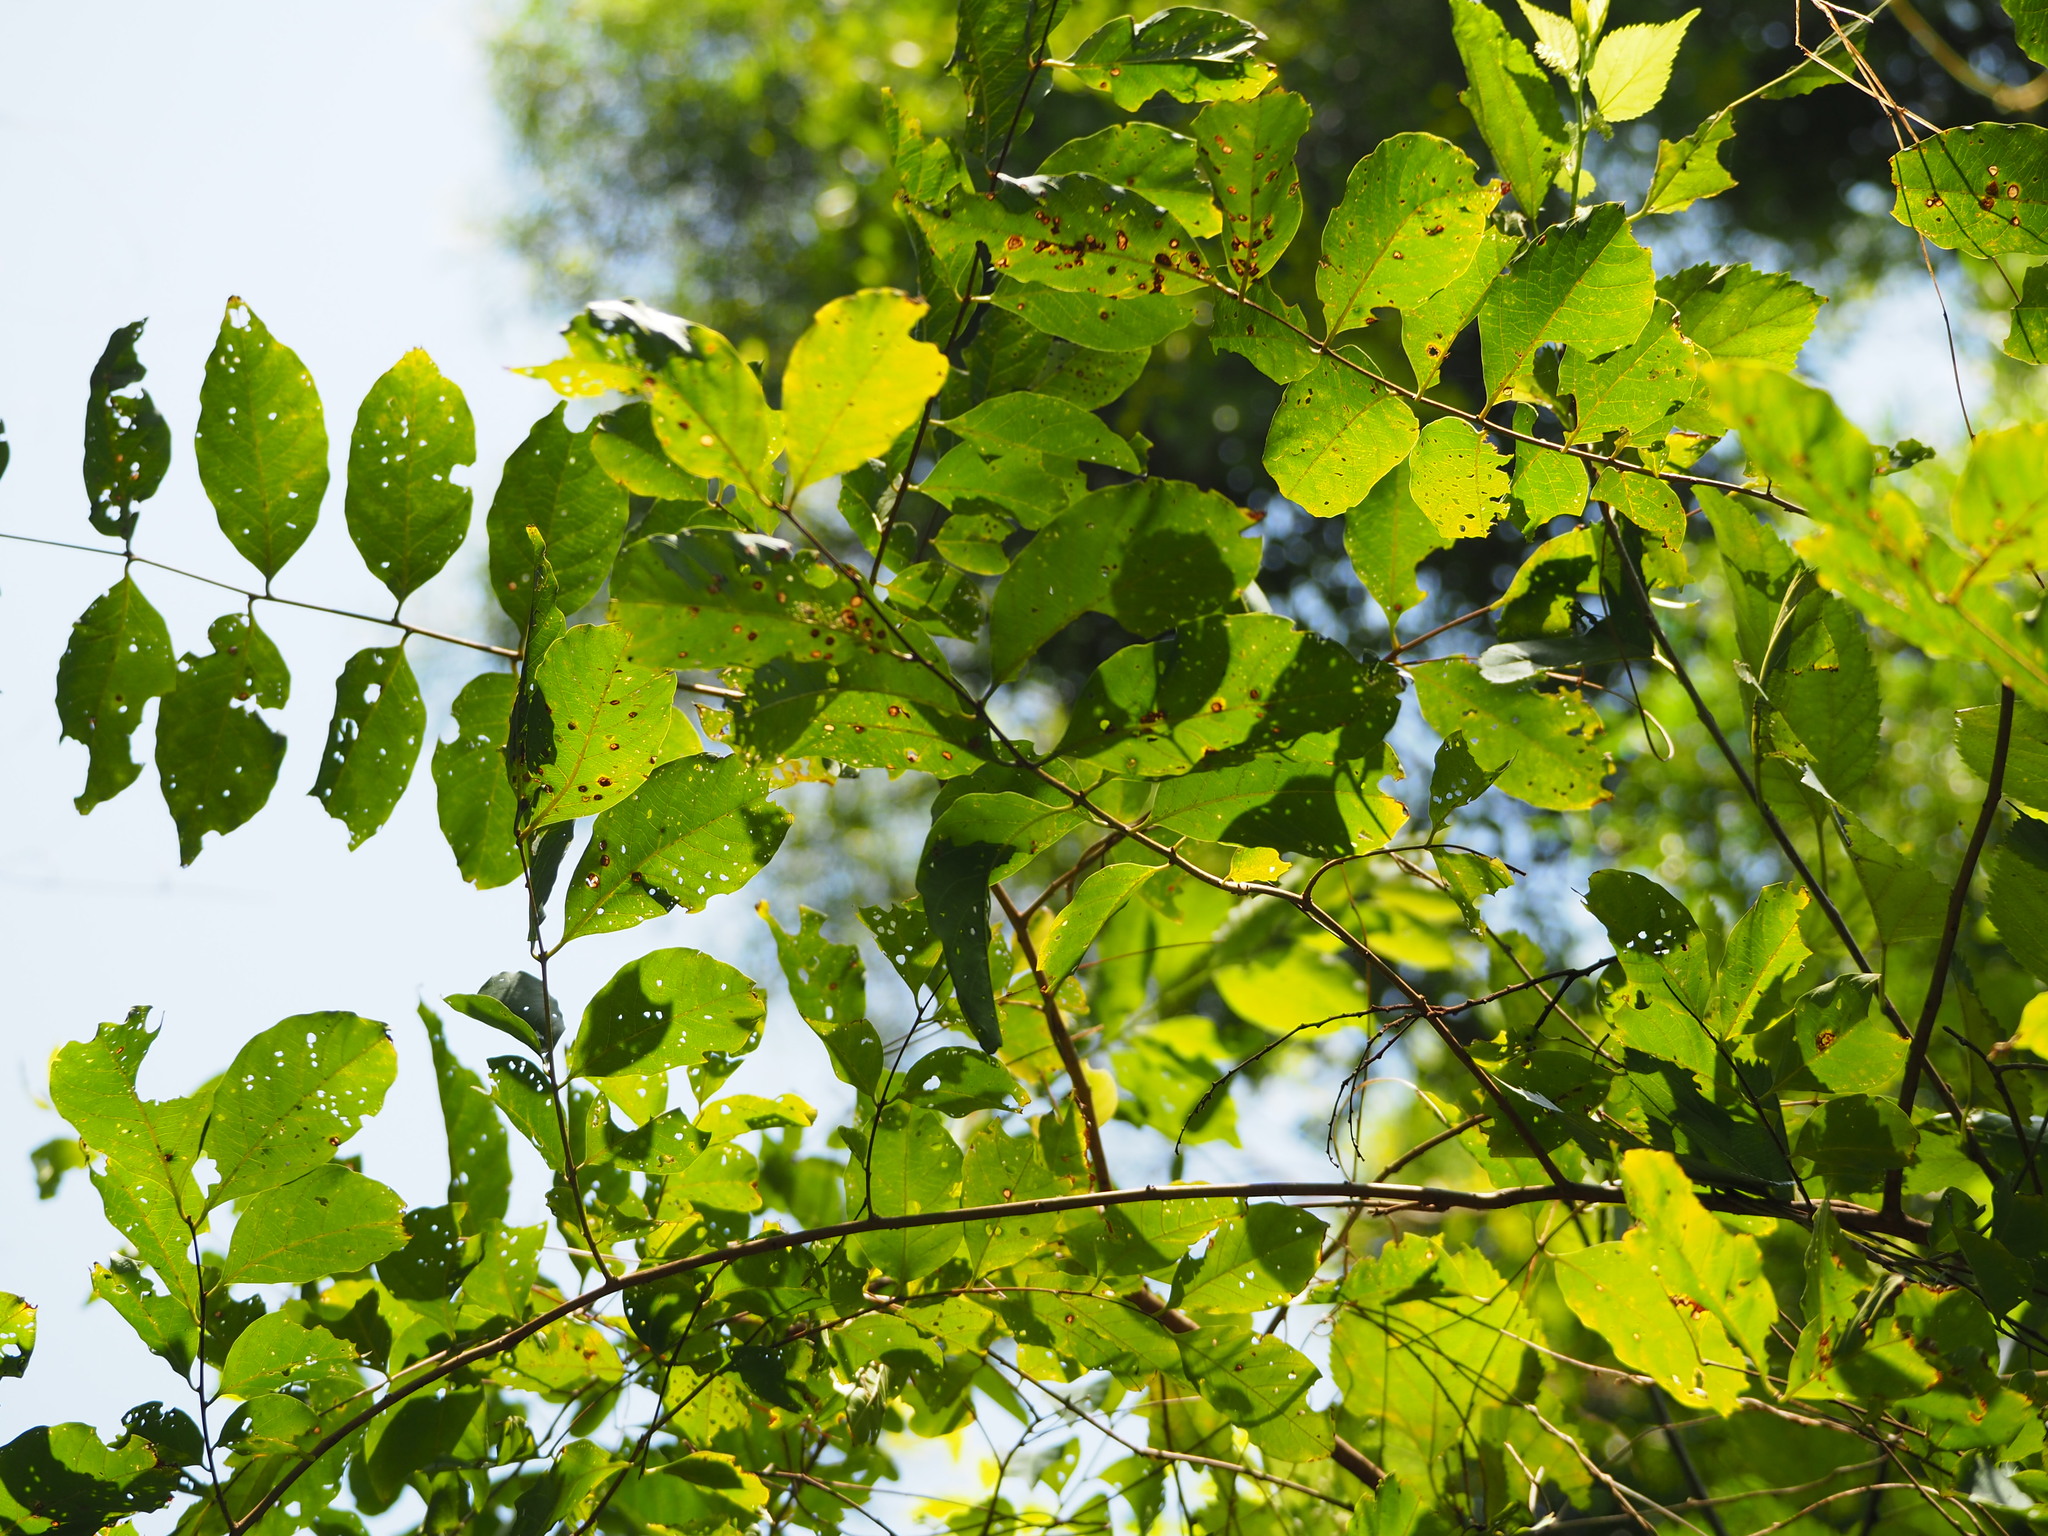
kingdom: Plantae
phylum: Tracheophyta
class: Magnoliopsida
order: Myrtales
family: Lythraceae
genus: Lagerstroemia
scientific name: Lagerstroemia subcostata
